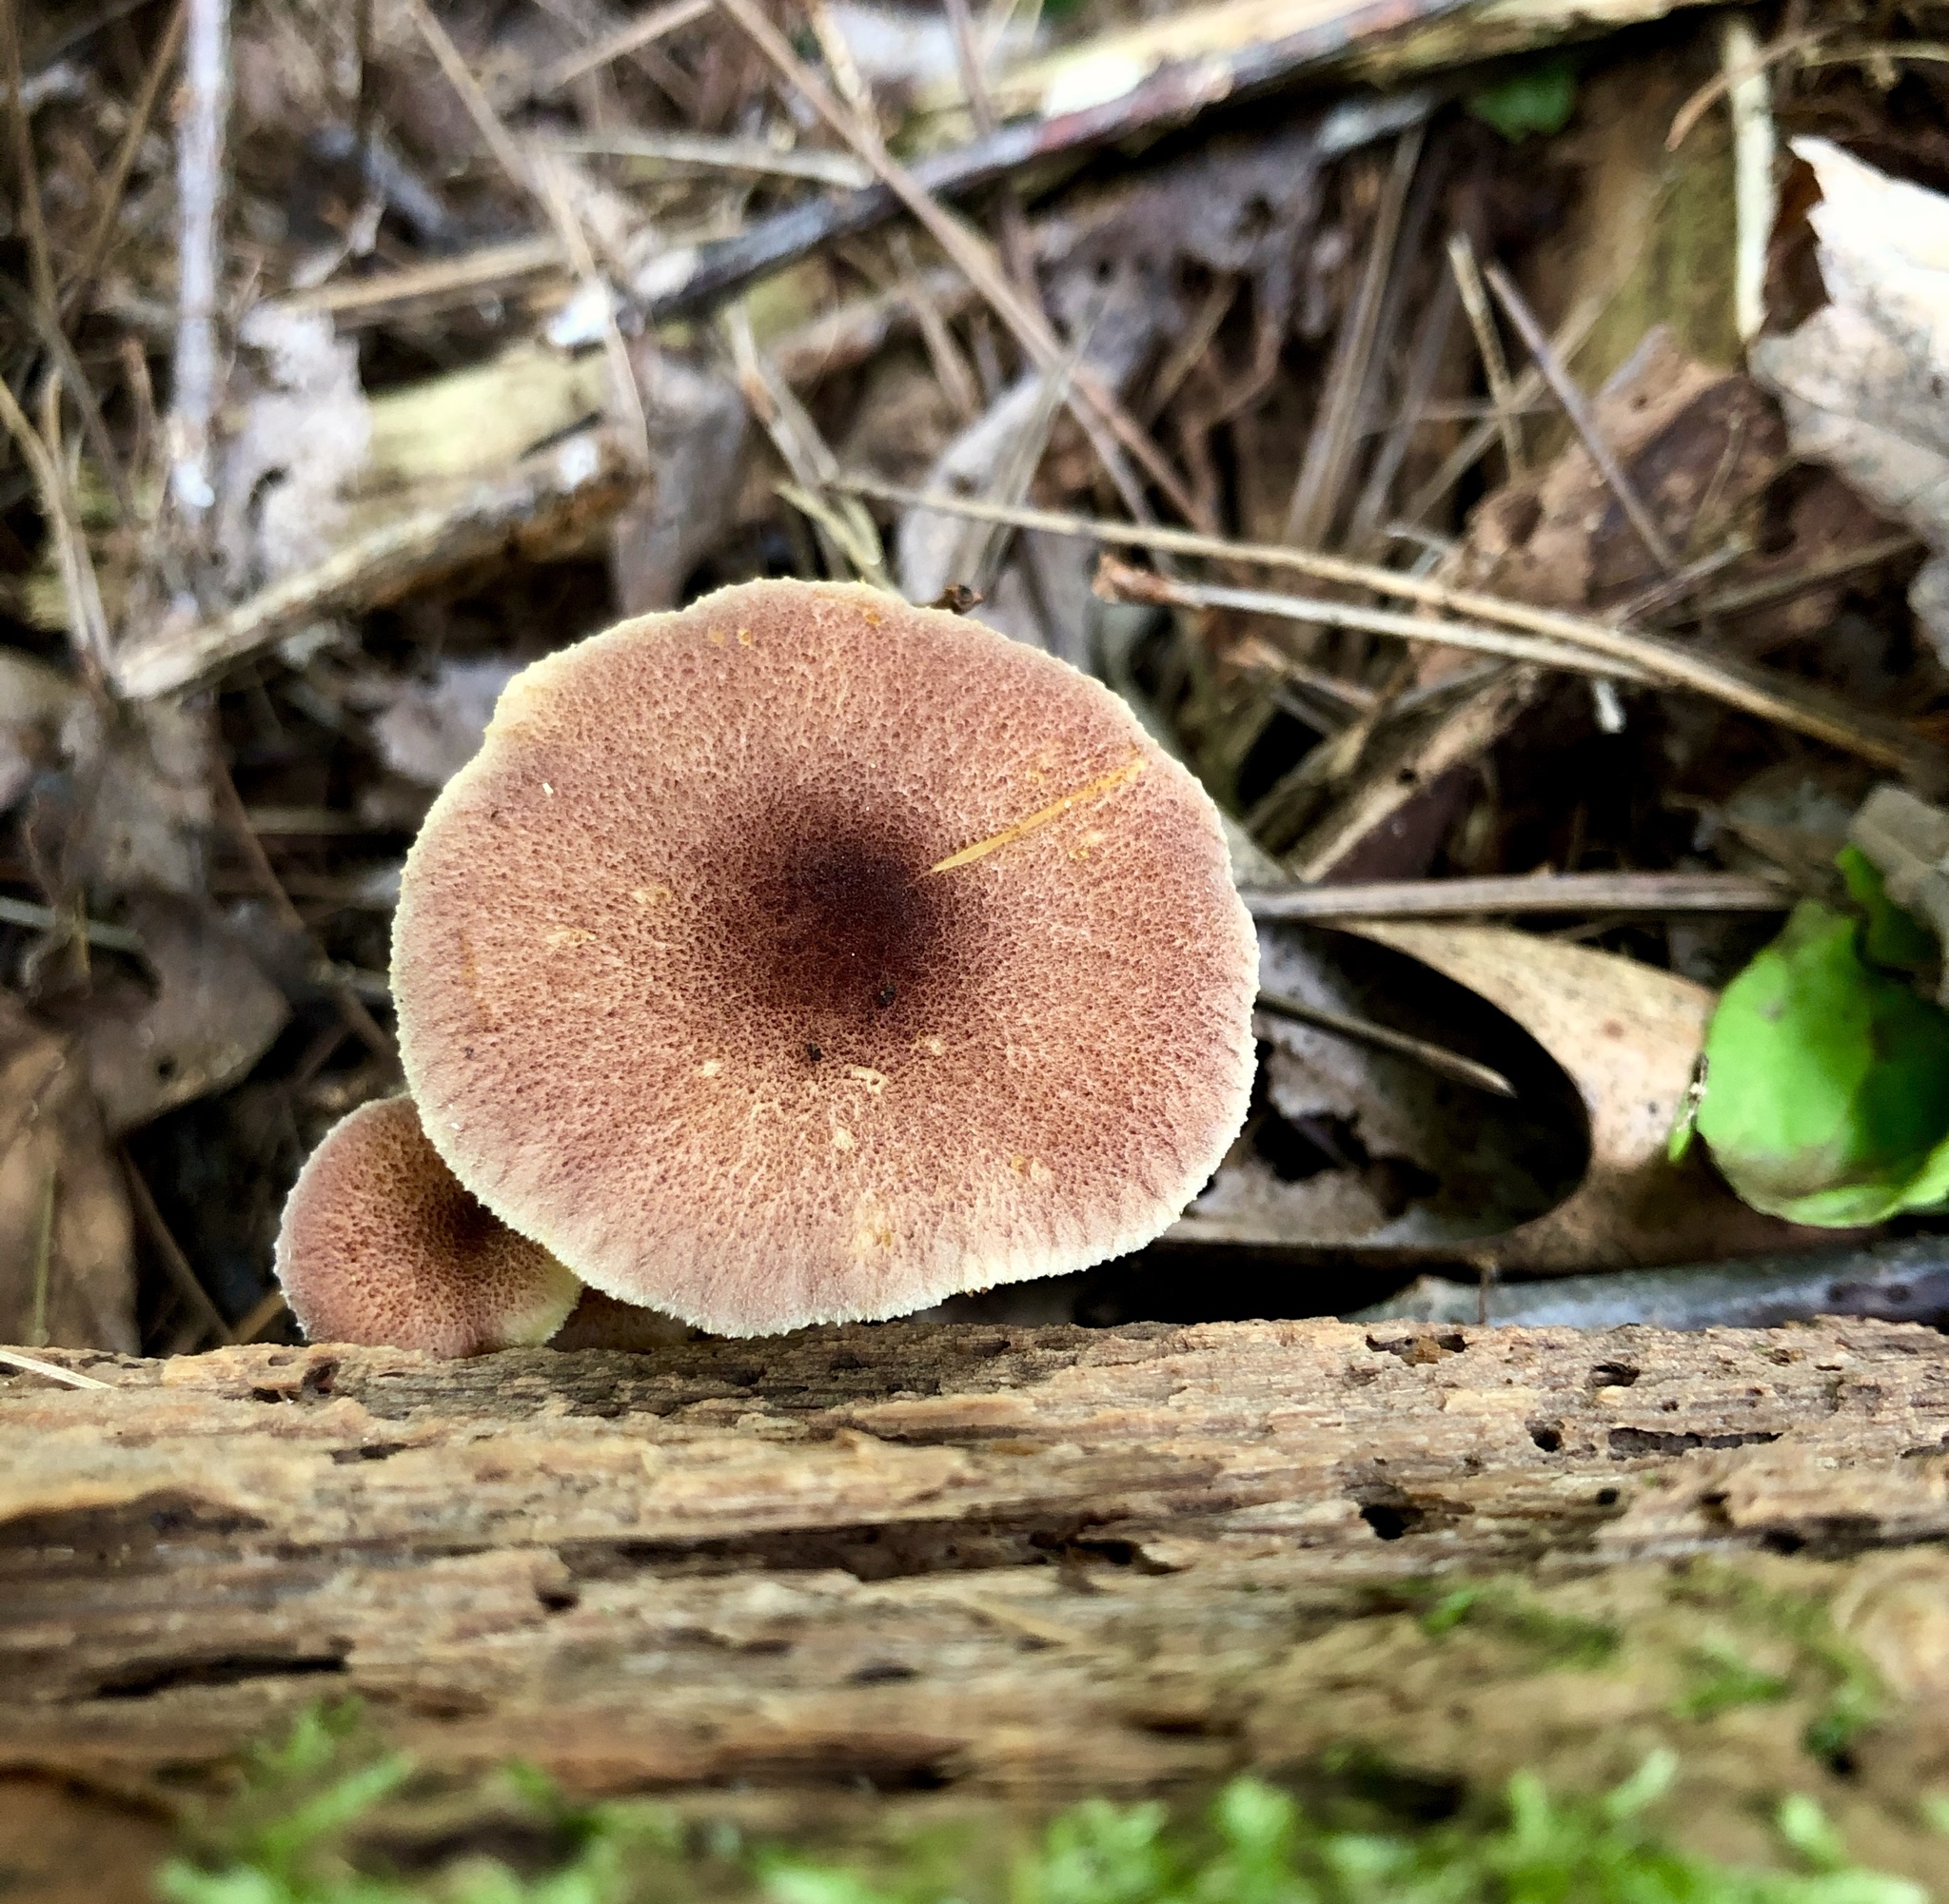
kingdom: Fungi
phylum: Basidiomycota
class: Agaricomycetes
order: Agaricales
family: Tricholomataceae
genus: Tricholomopsis
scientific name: Tricholomopsis rutilans
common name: Plums and custard
